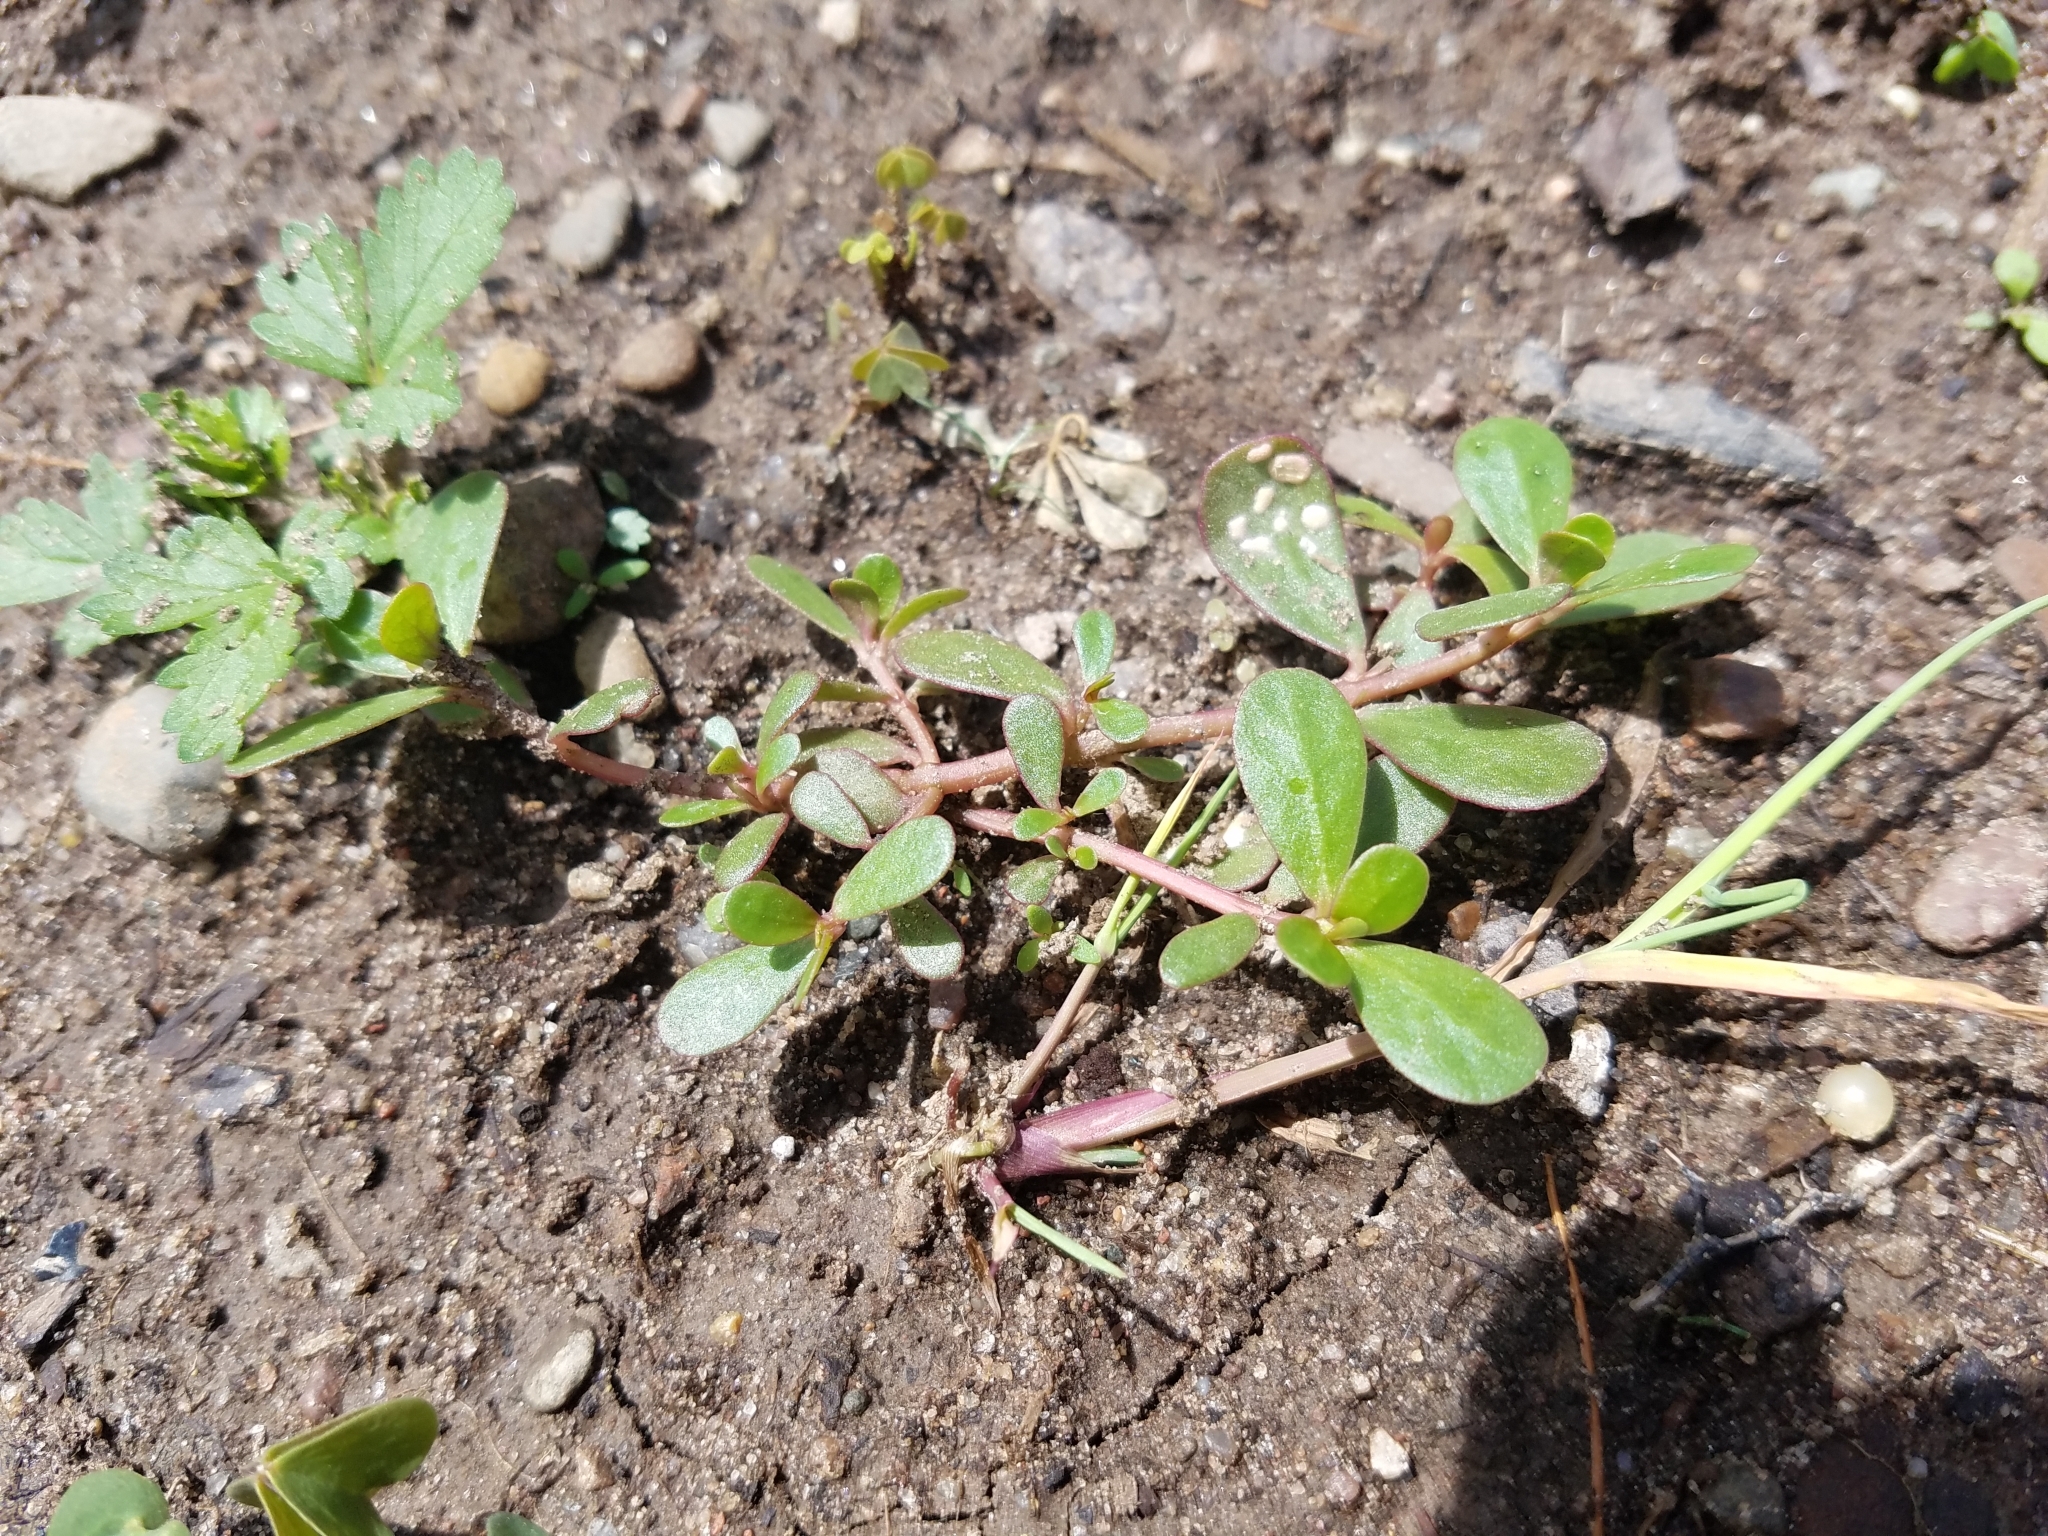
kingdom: Plantae
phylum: Tracheophyta
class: Magnoliopsida
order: Caryophyllales
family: Portulacaceae
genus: Portulaca
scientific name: Portulaca oleracea
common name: Common purslane
